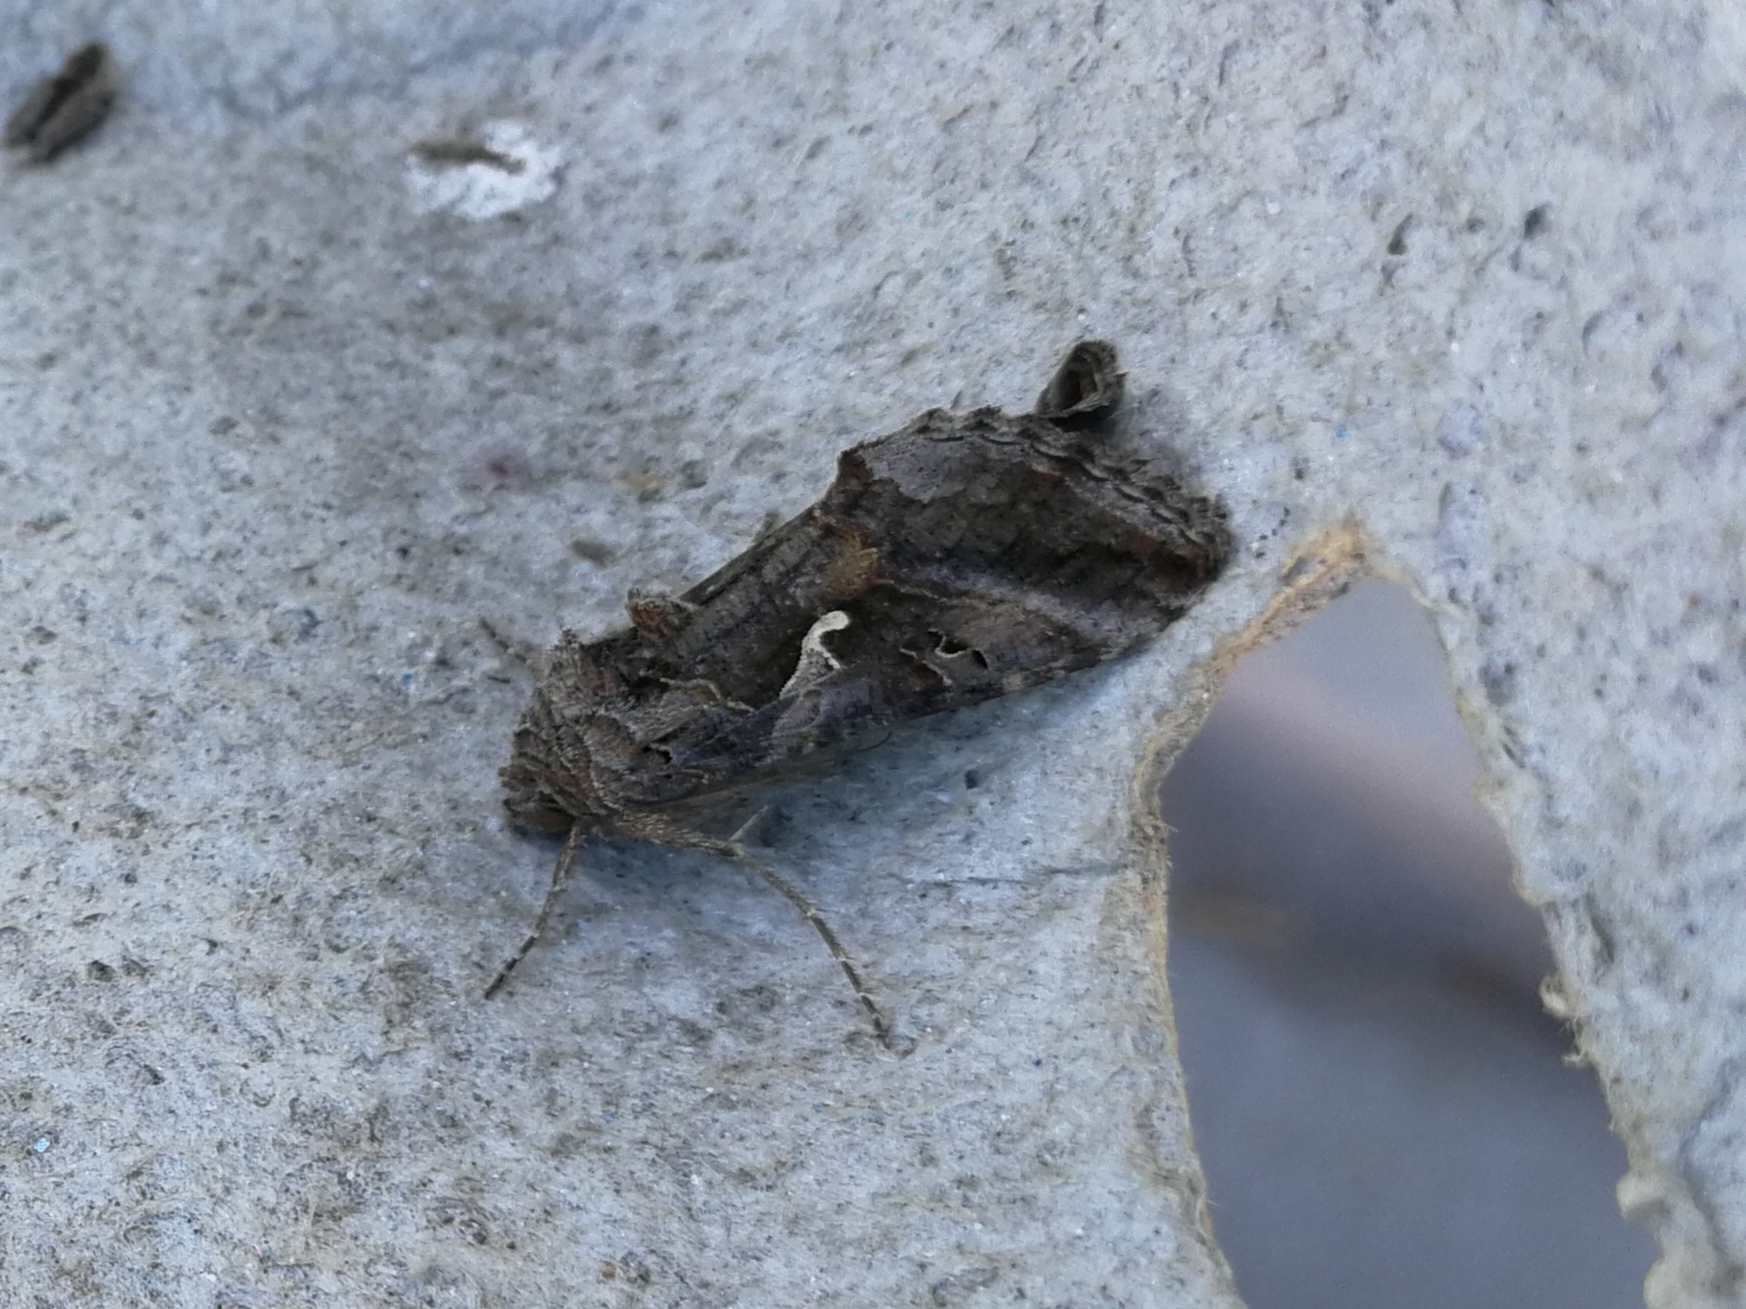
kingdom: Animalia
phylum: Arthropoda
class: Insecta
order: Lepidoptera
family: Noctuidae
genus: Autographa
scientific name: Autographa gamma
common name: Silver y
